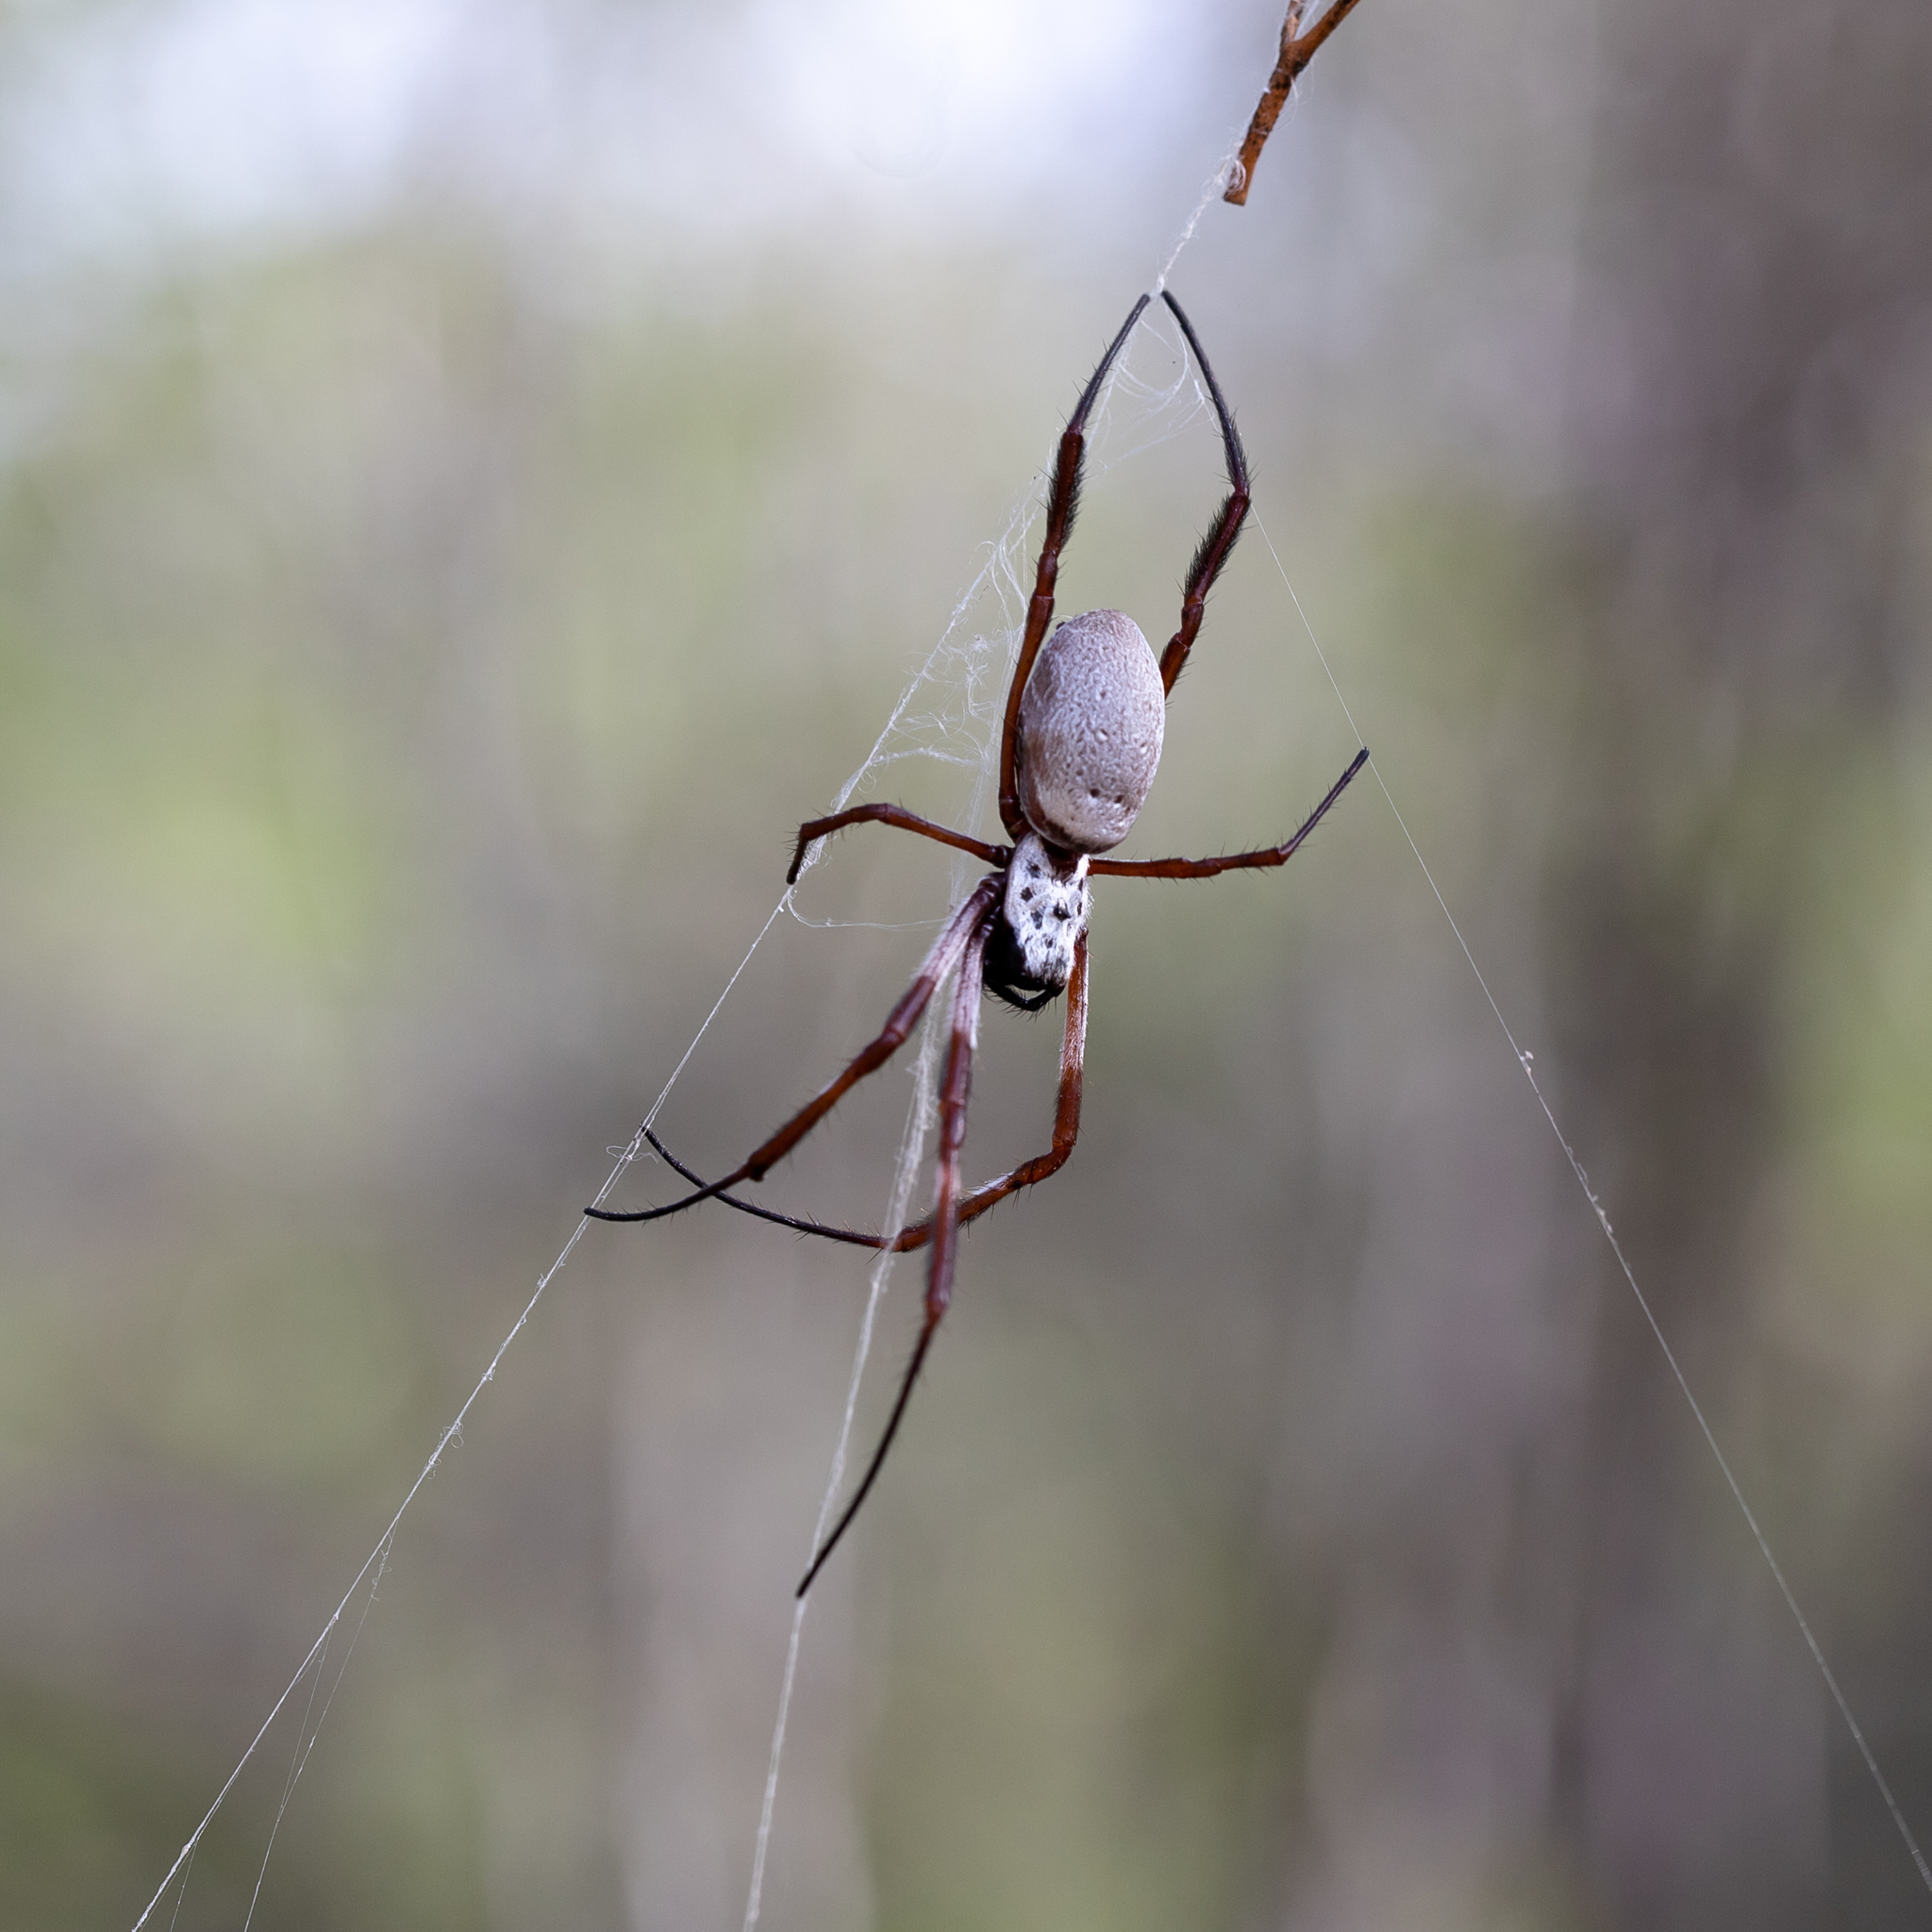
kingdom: Animalia
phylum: Arthropoda
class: Arachnida
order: Araneae
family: Araneidae
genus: Trichonephila
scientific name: Trichonephila edulis
